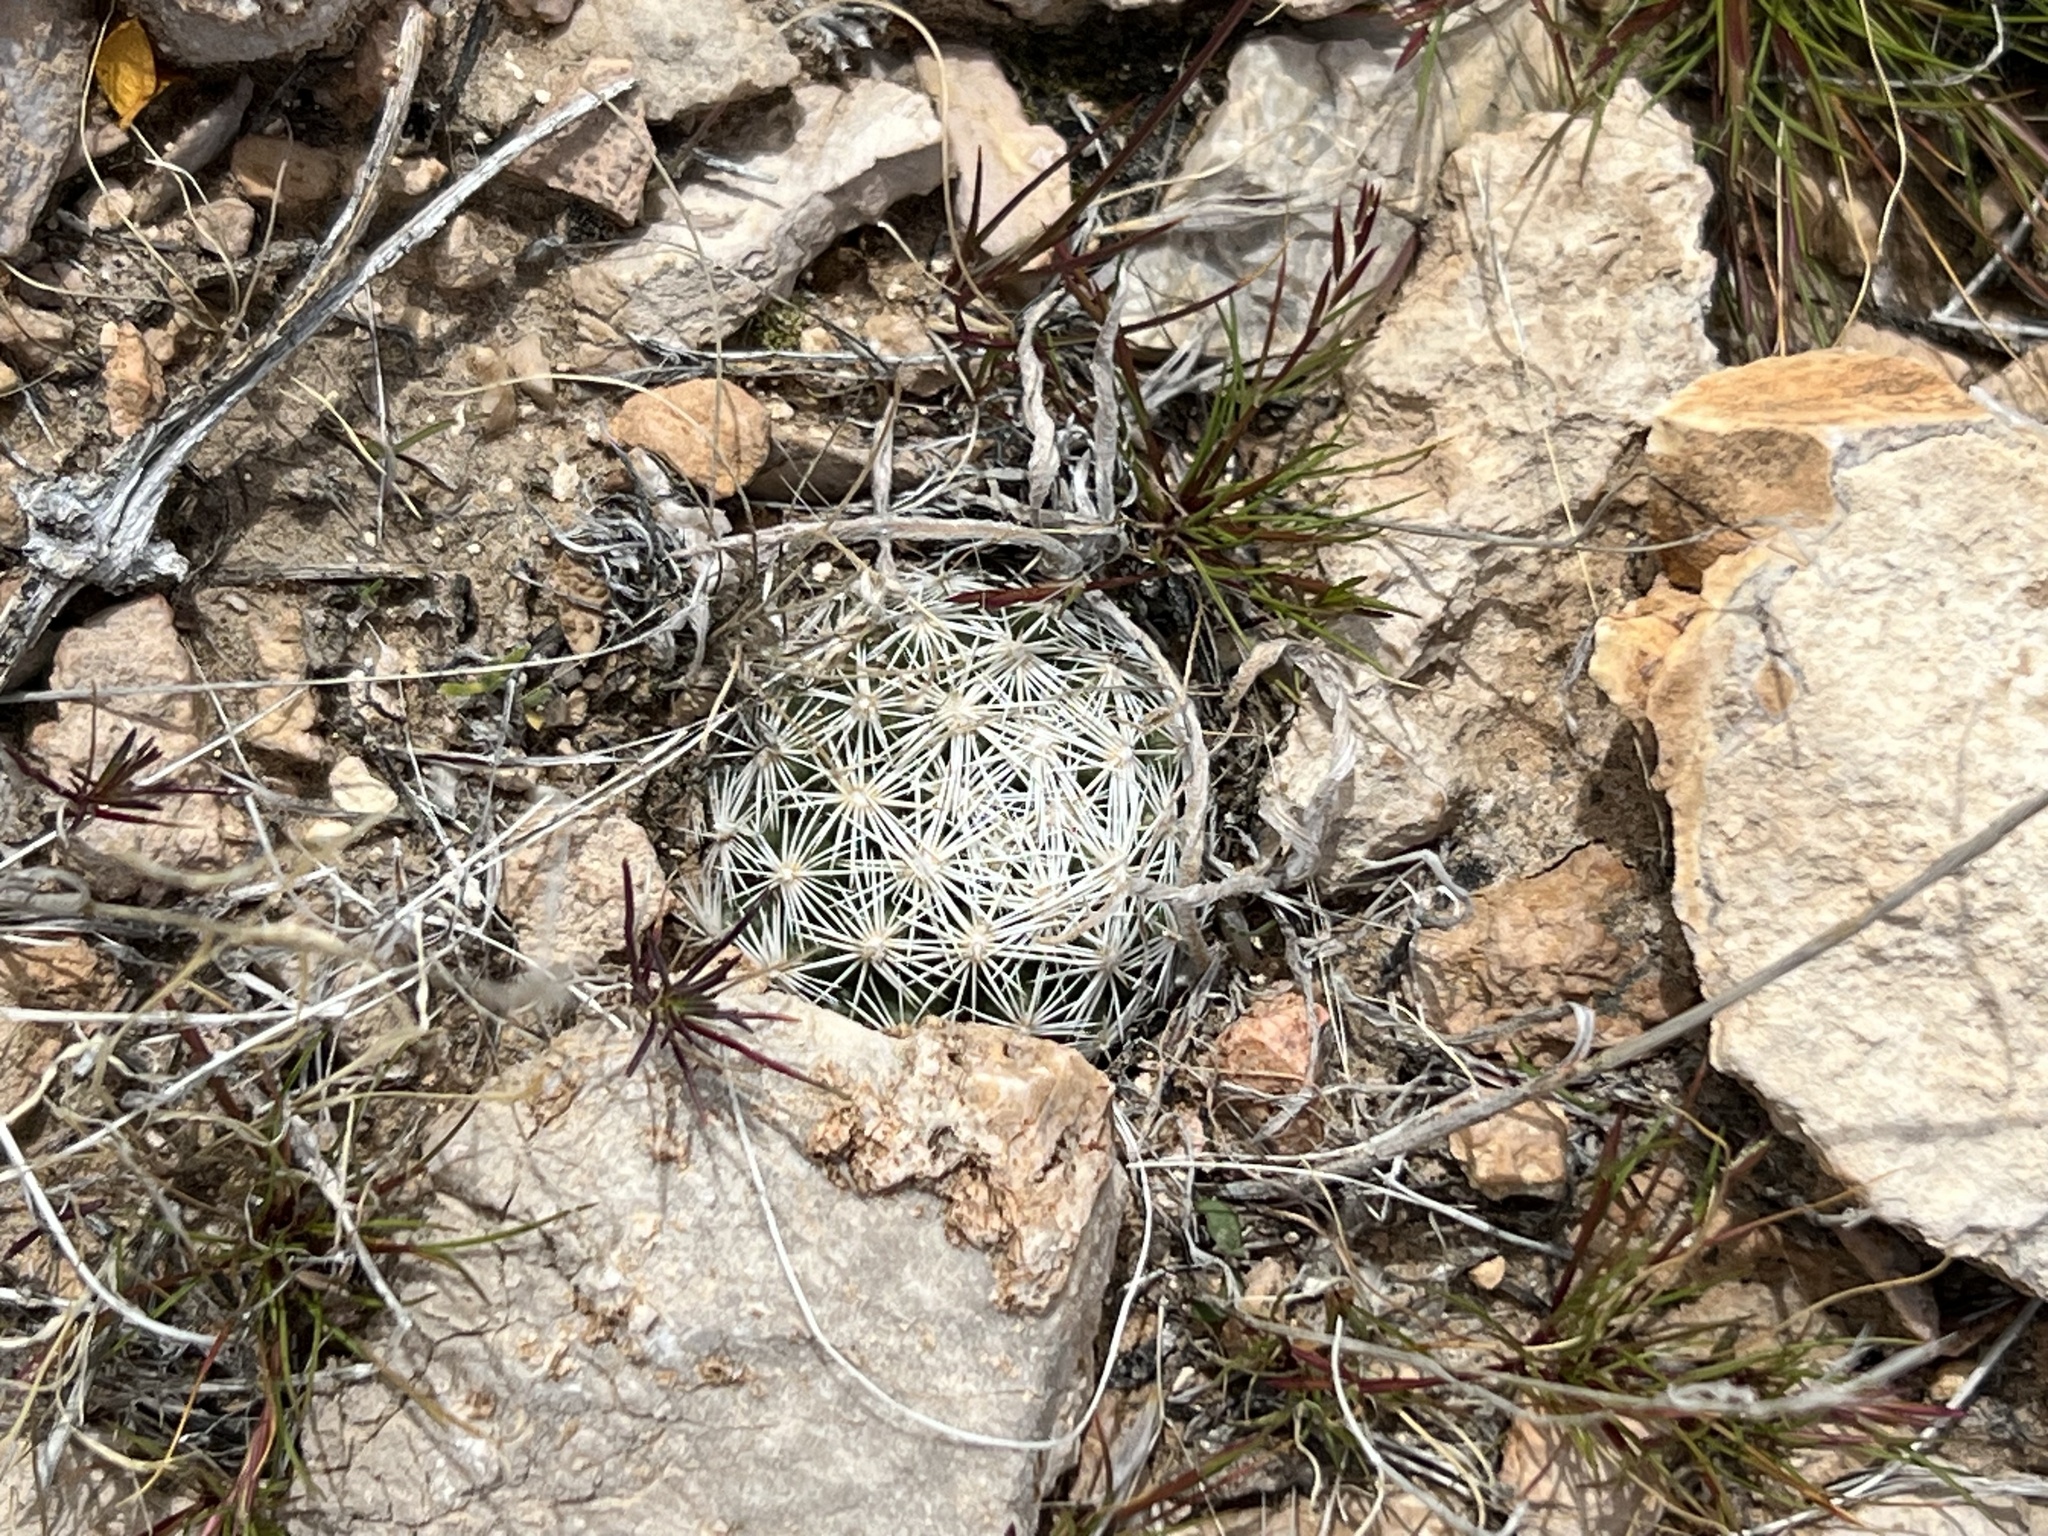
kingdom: Plantae
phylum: Tracheophyta
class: Magnoliopsida
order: Caryophyllales
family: Cactaceae
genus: Pelecyphora
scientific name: Pelecyphora dasyacantha
